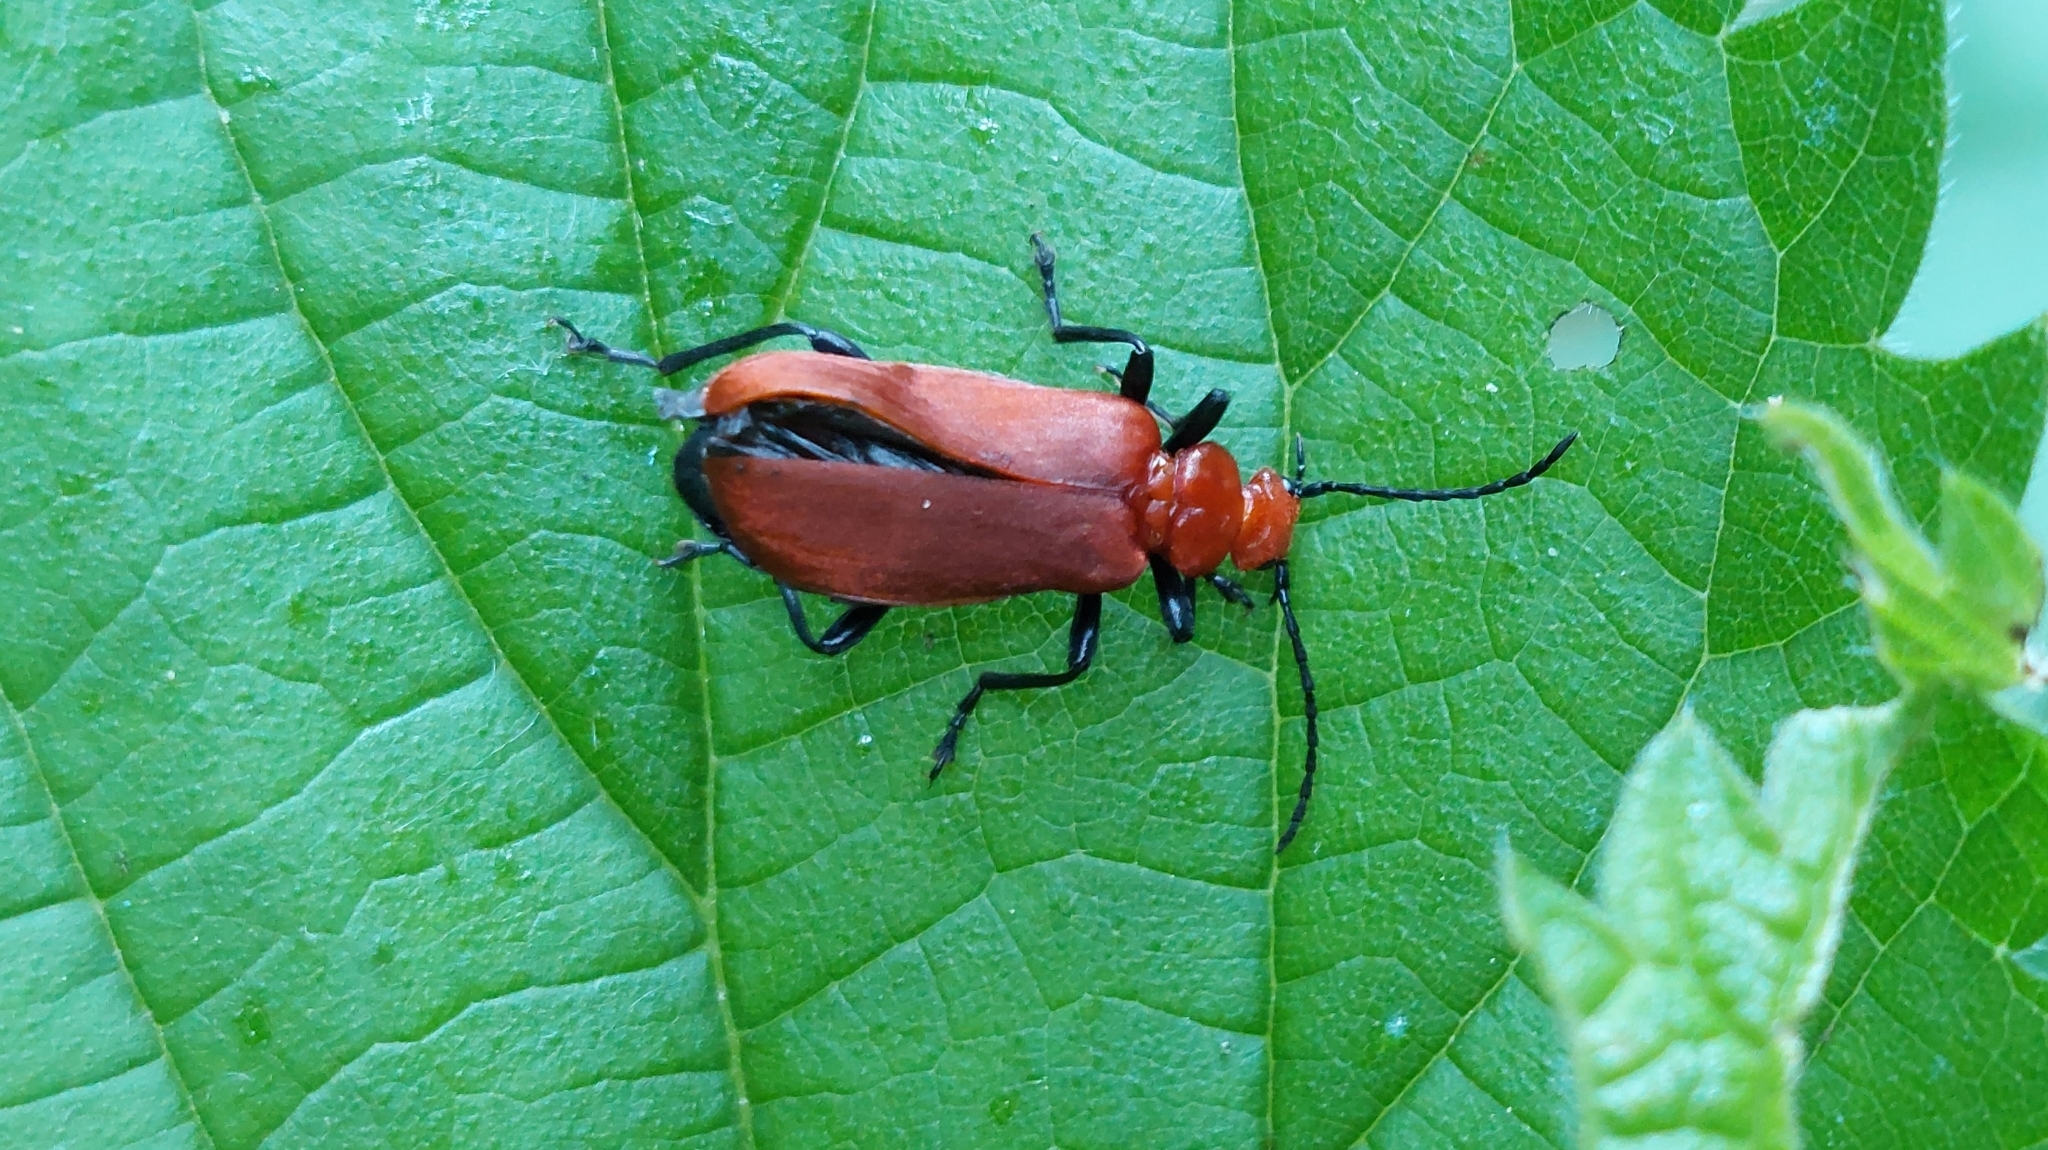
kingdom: Animalia
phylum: Arthropoda
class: Insecta
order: Coleoptera
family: Pyrochroidae
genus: Pyrochroa
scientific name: Pyrochroa serraticornis
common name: Red-headed cardinal beetle
